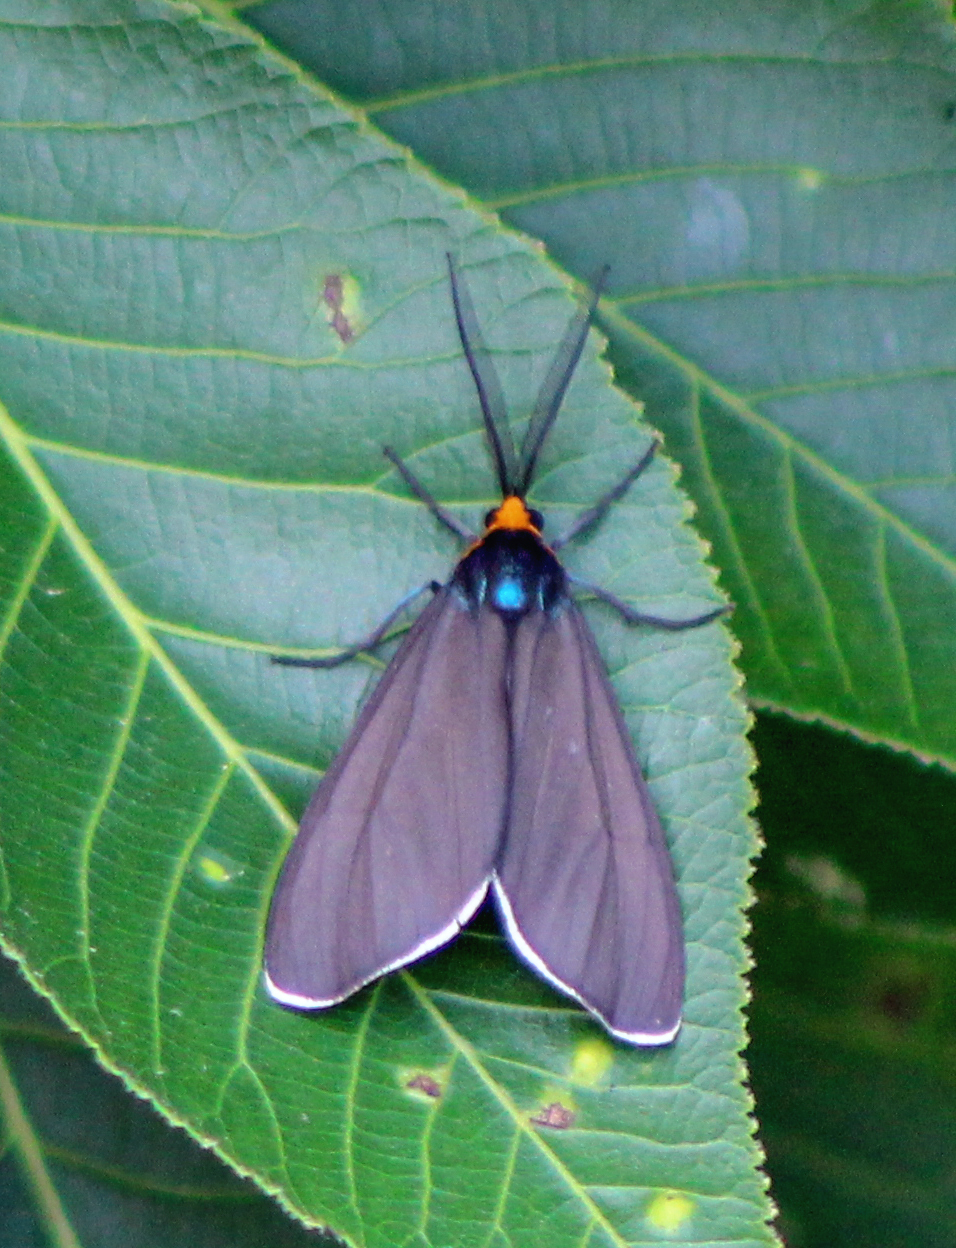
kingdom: Animalia
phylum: Arthropoda
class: Insecta
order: Lepidoptera
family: Erebidae
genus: Ctenucha
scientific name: Ctenucha virginica
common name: Virginia ctenucha moth
